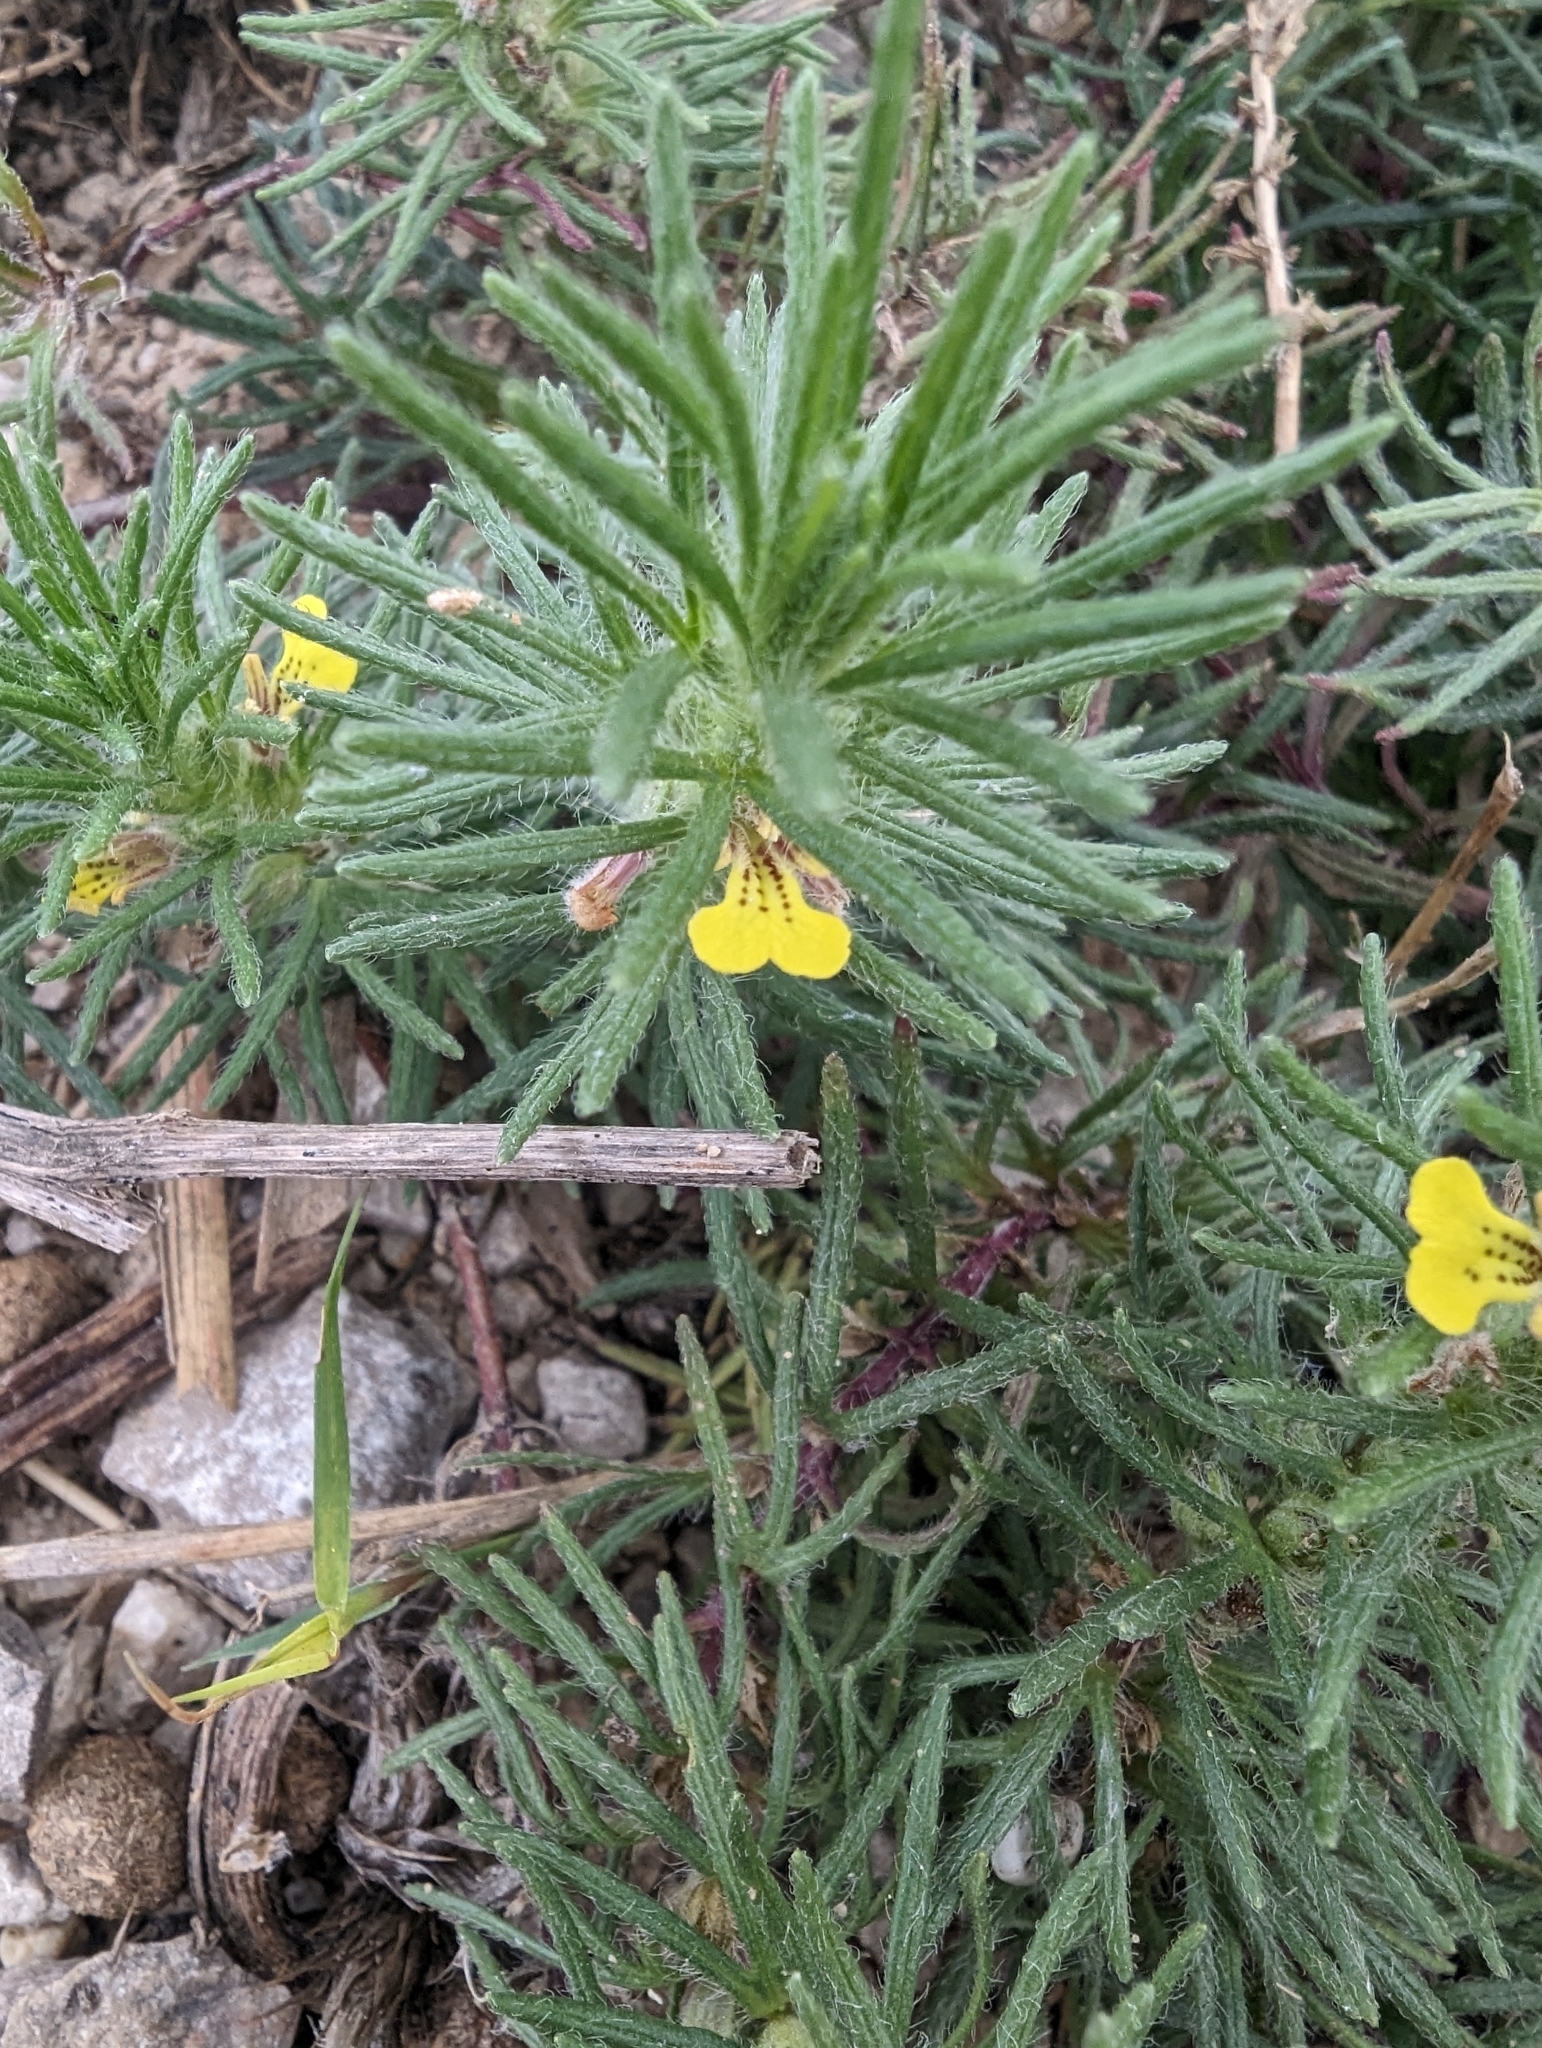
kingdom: Plantae
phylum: Tracheophyta
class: Magnoliopsida
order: Lamiales
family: Lamiaceae
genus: Ajuga
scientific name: Ajuga chamaepitys
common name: Ground-pine
